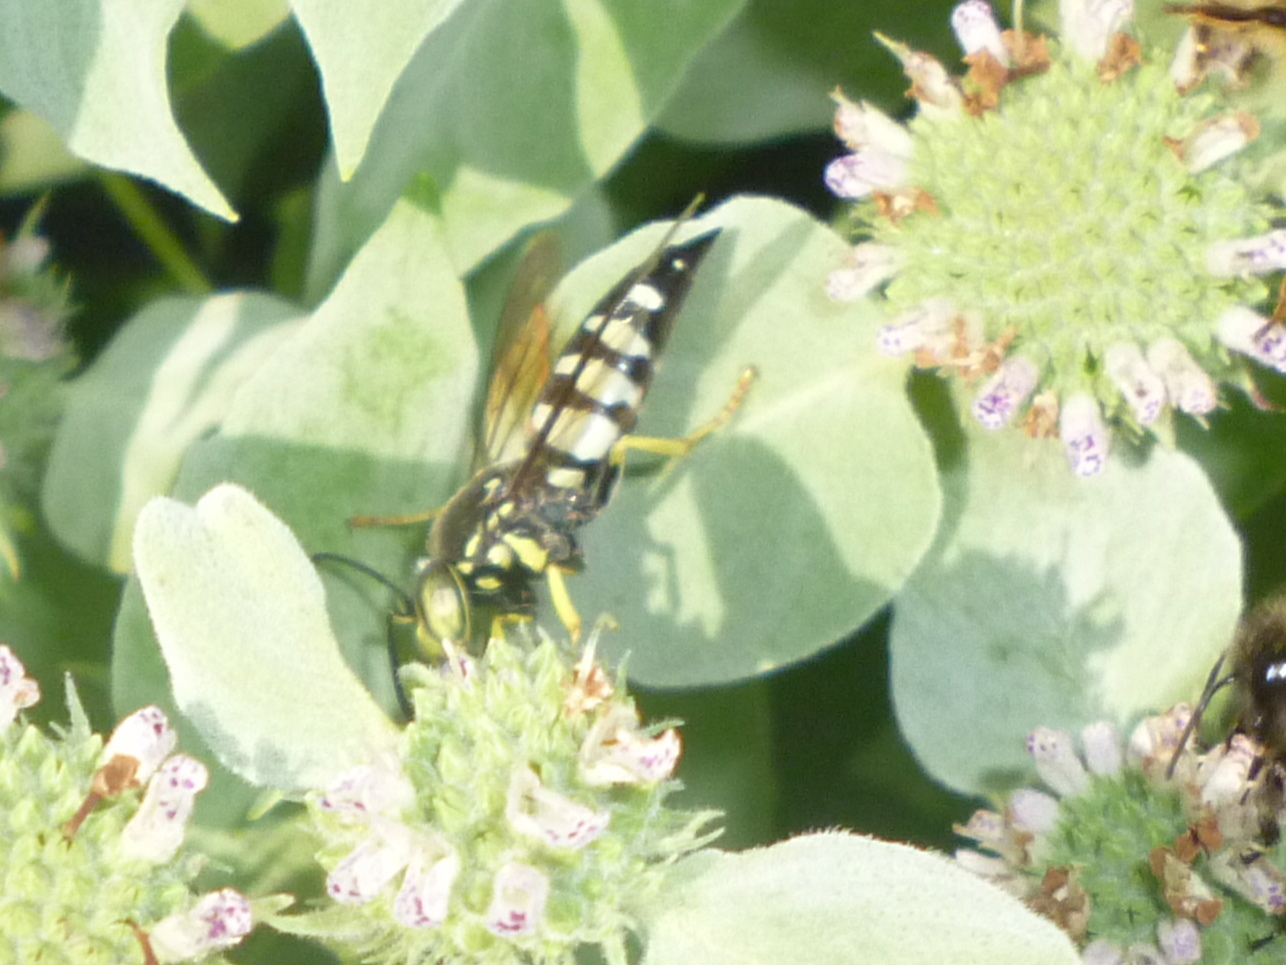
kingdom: Animalia
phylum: Arthropoda
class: Insecta
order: Hymenoptera
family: Crabronidae
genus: Bicyrtes
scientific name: Bicyrtes quadrifasciatus
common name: Four-banded stink bug hunter wasp
